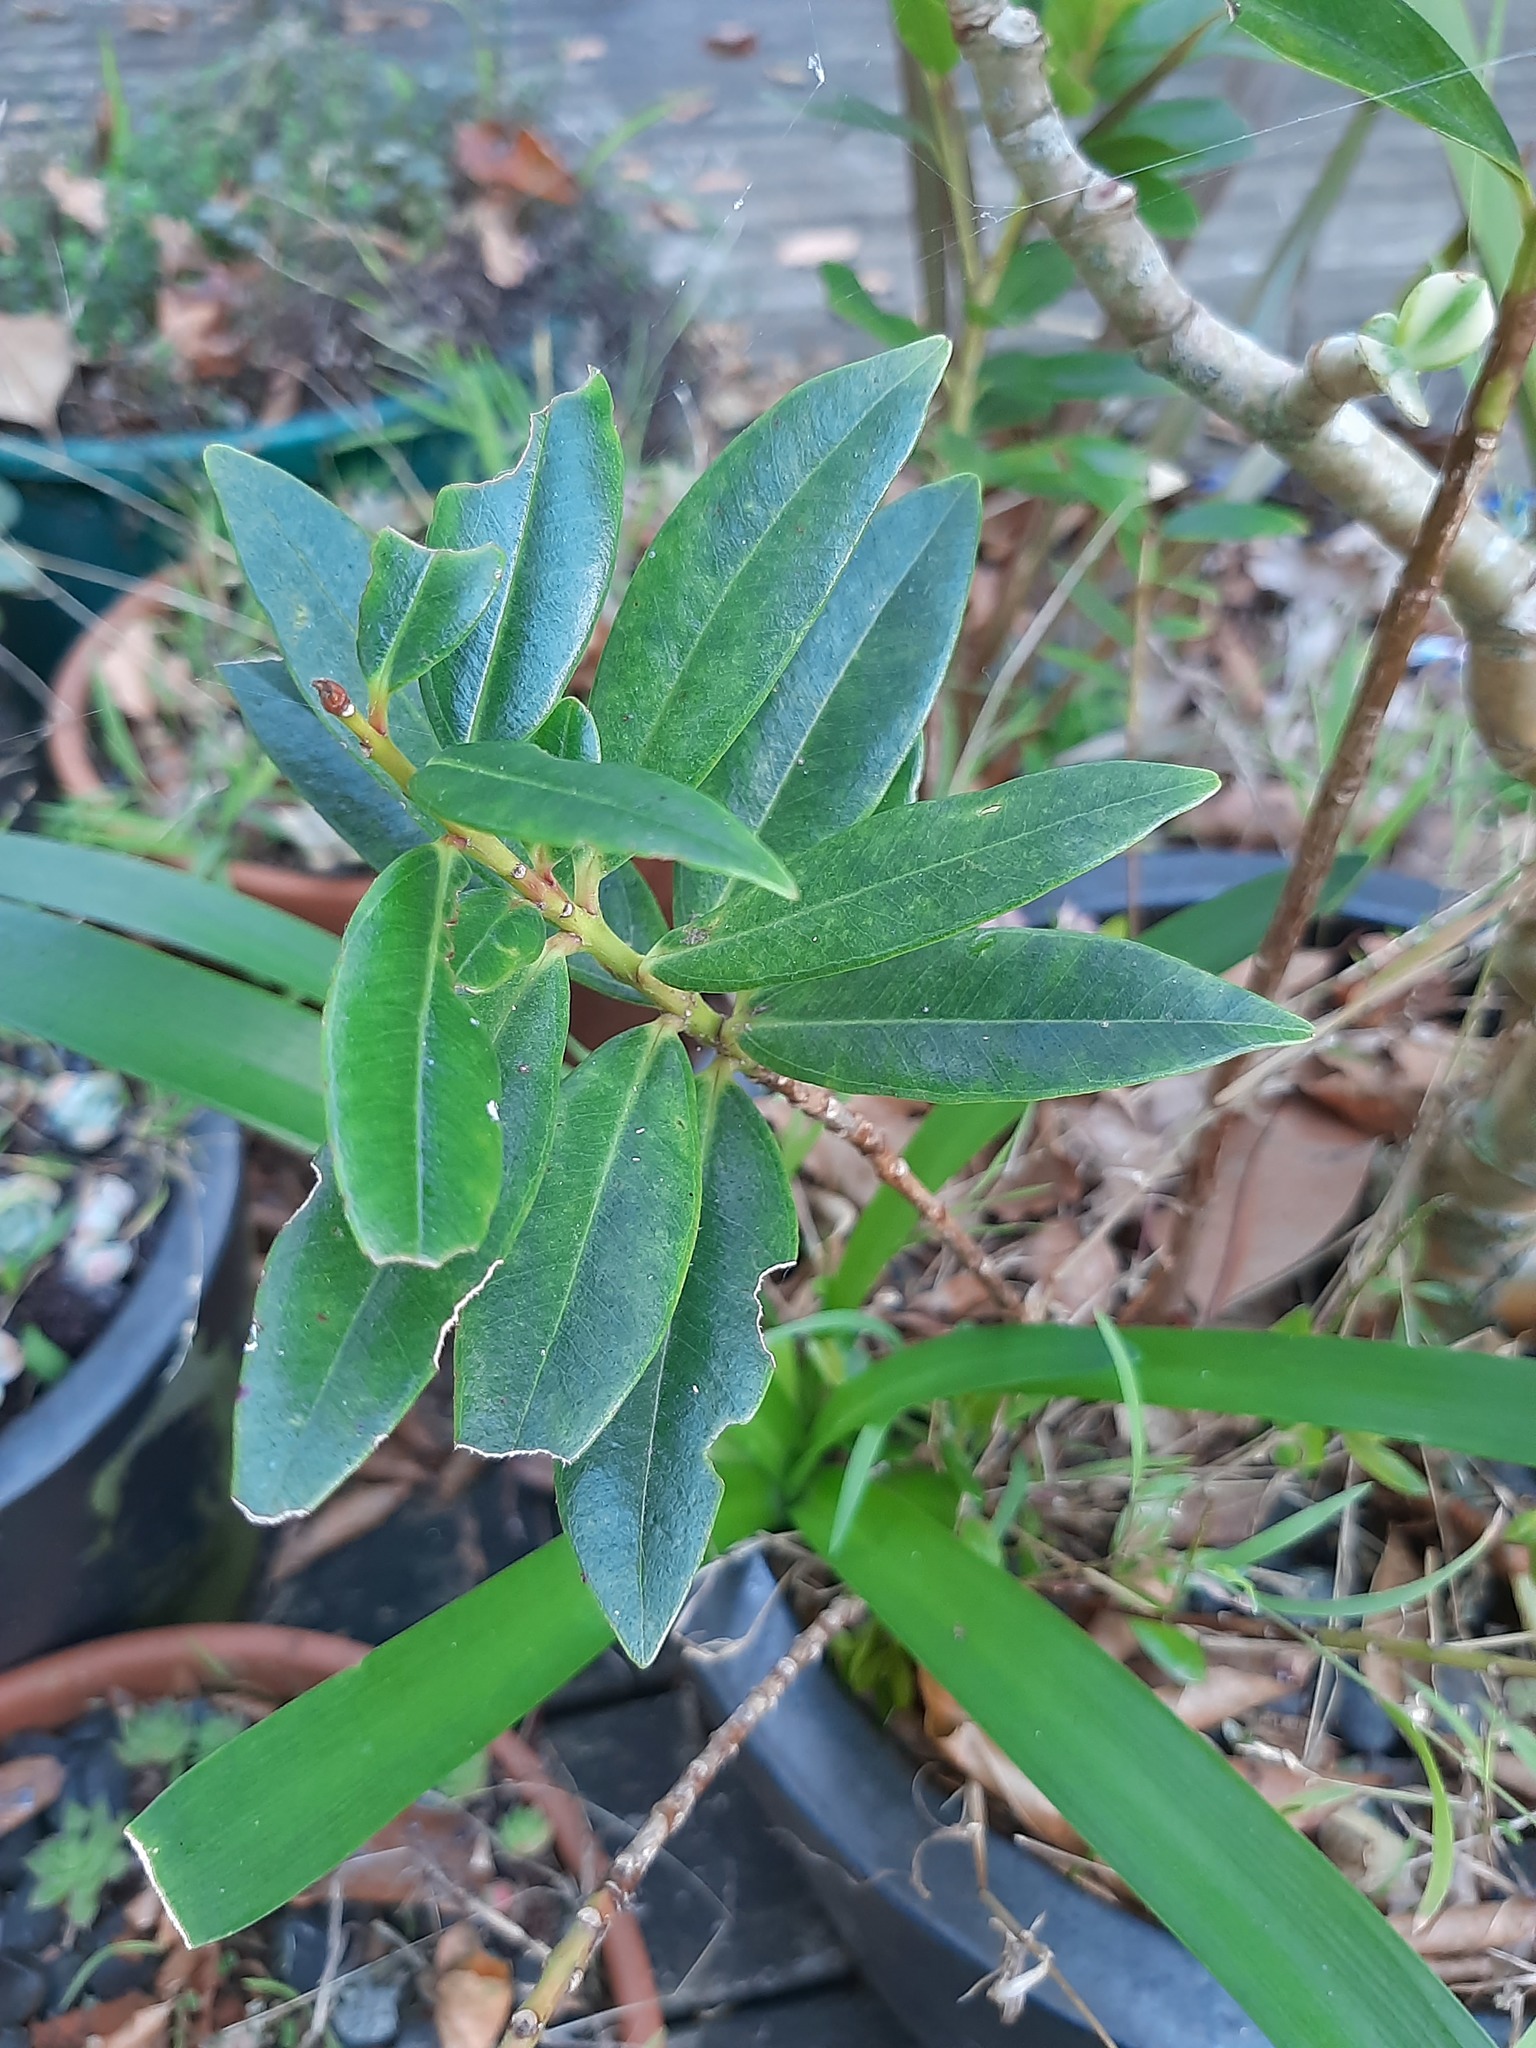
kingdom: Plantae
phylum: Tracheophyta
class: Magnoliopsida
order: Myrtales
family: Myrtaceae
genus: Metrosideros
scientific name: Metrosideros excelsa
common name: New zealand christmastree
